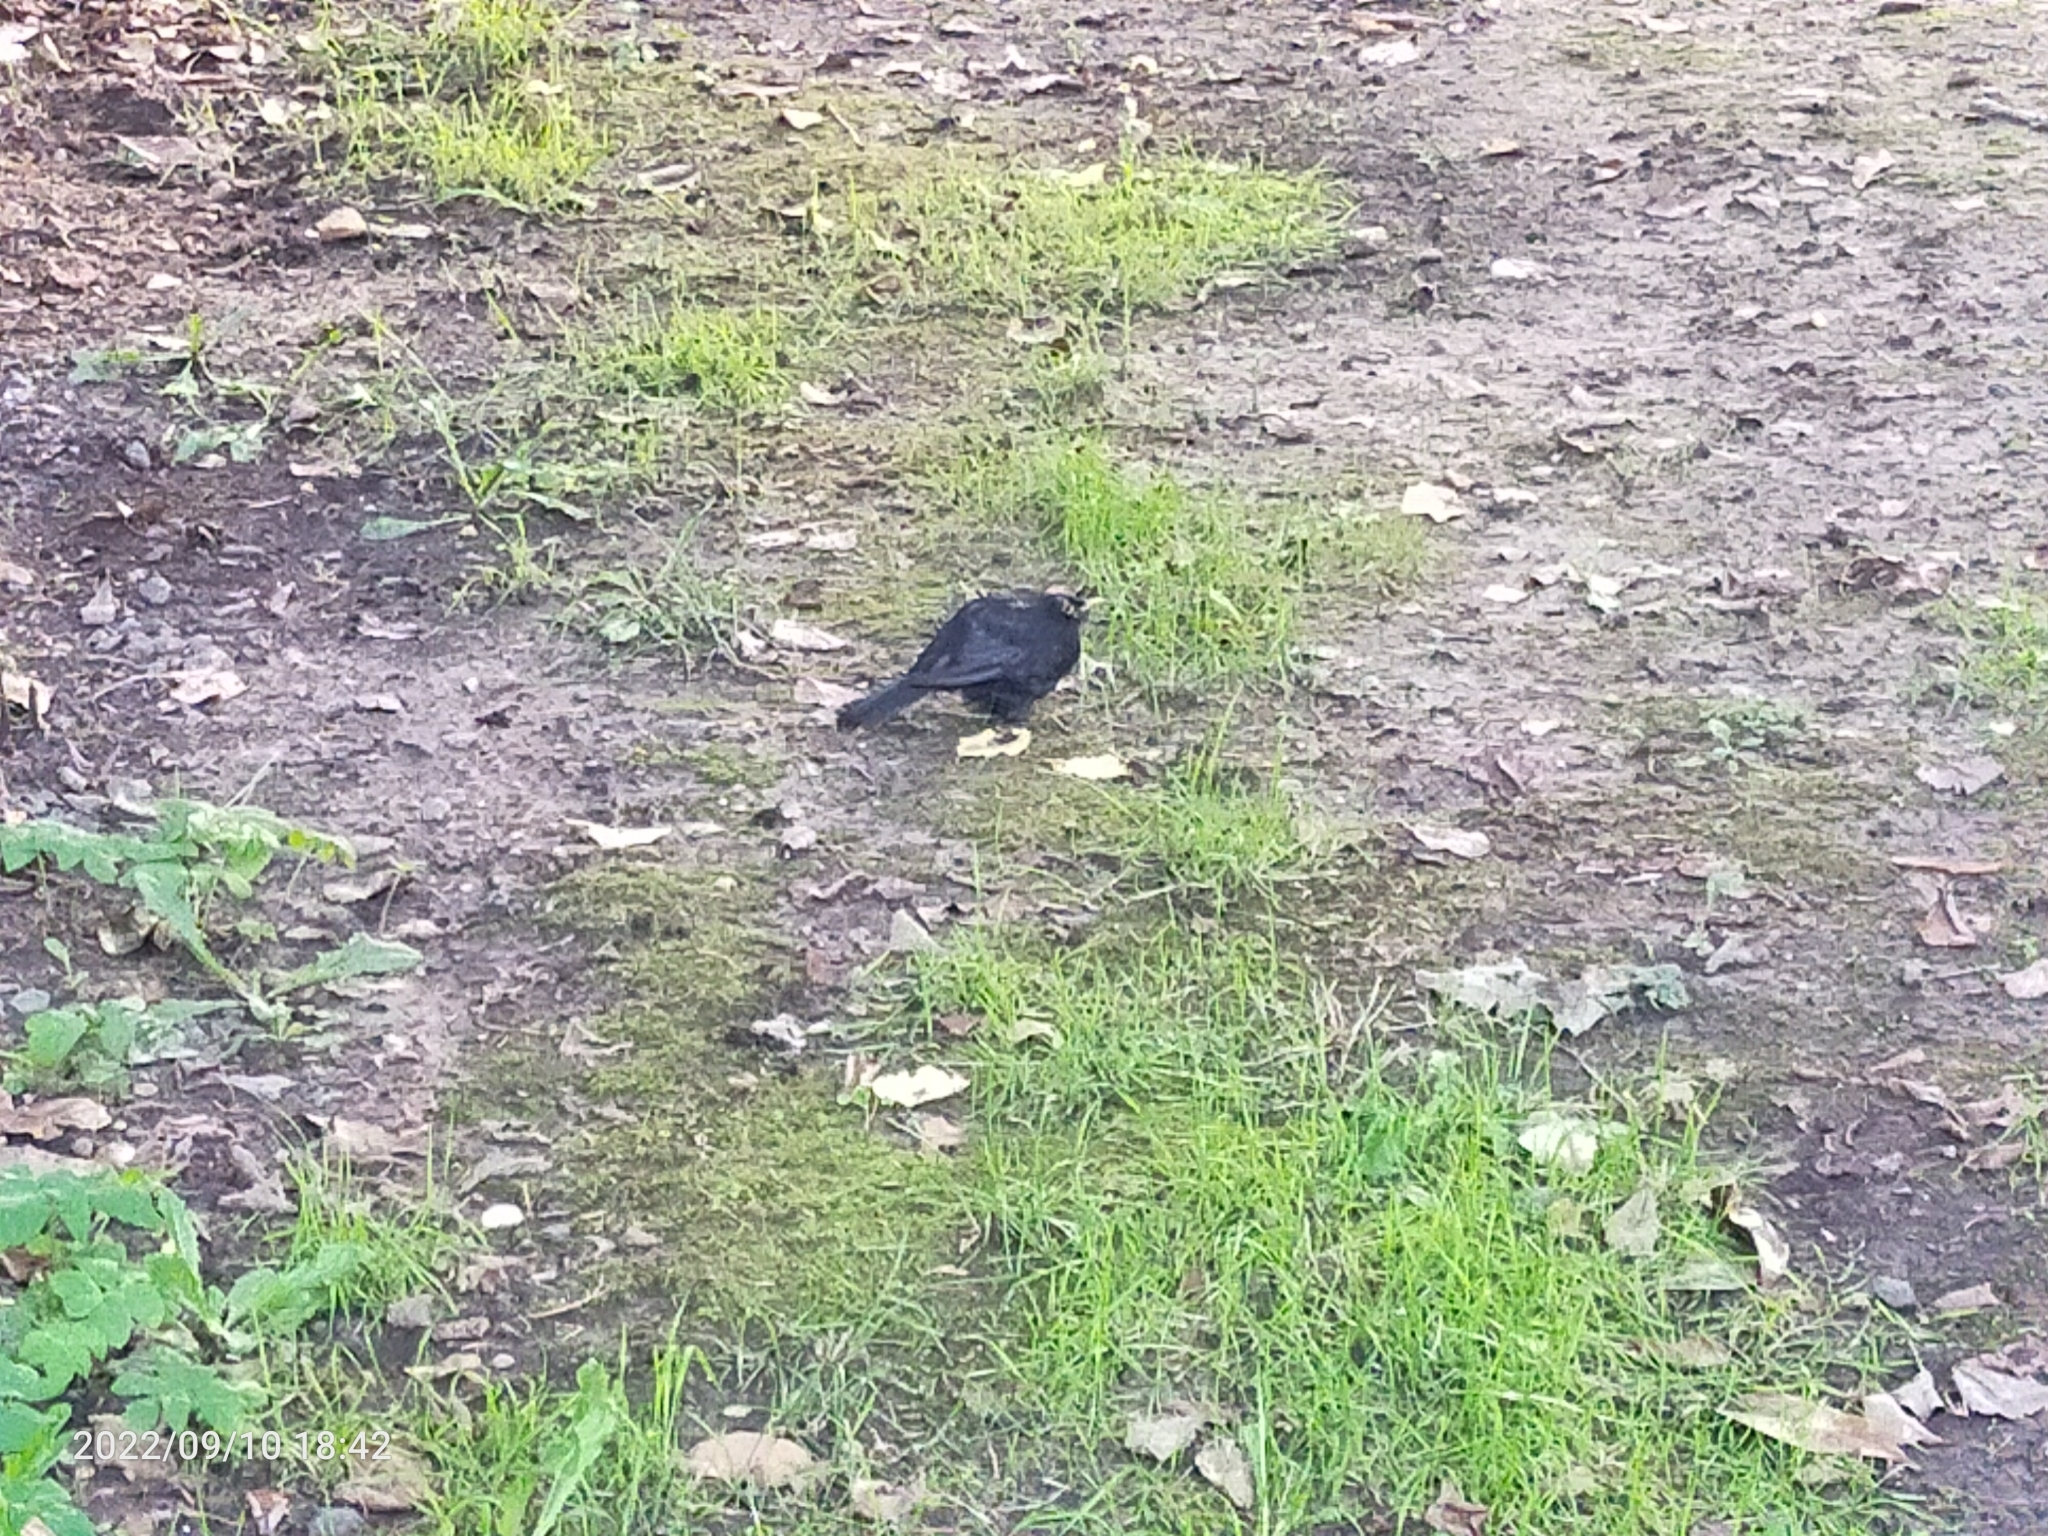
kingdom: Animalia
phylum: Chordata
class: Aves
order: Passeriformes
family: Turdidae
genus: Turdus
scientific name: Turdus merula
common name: Common blackbird
